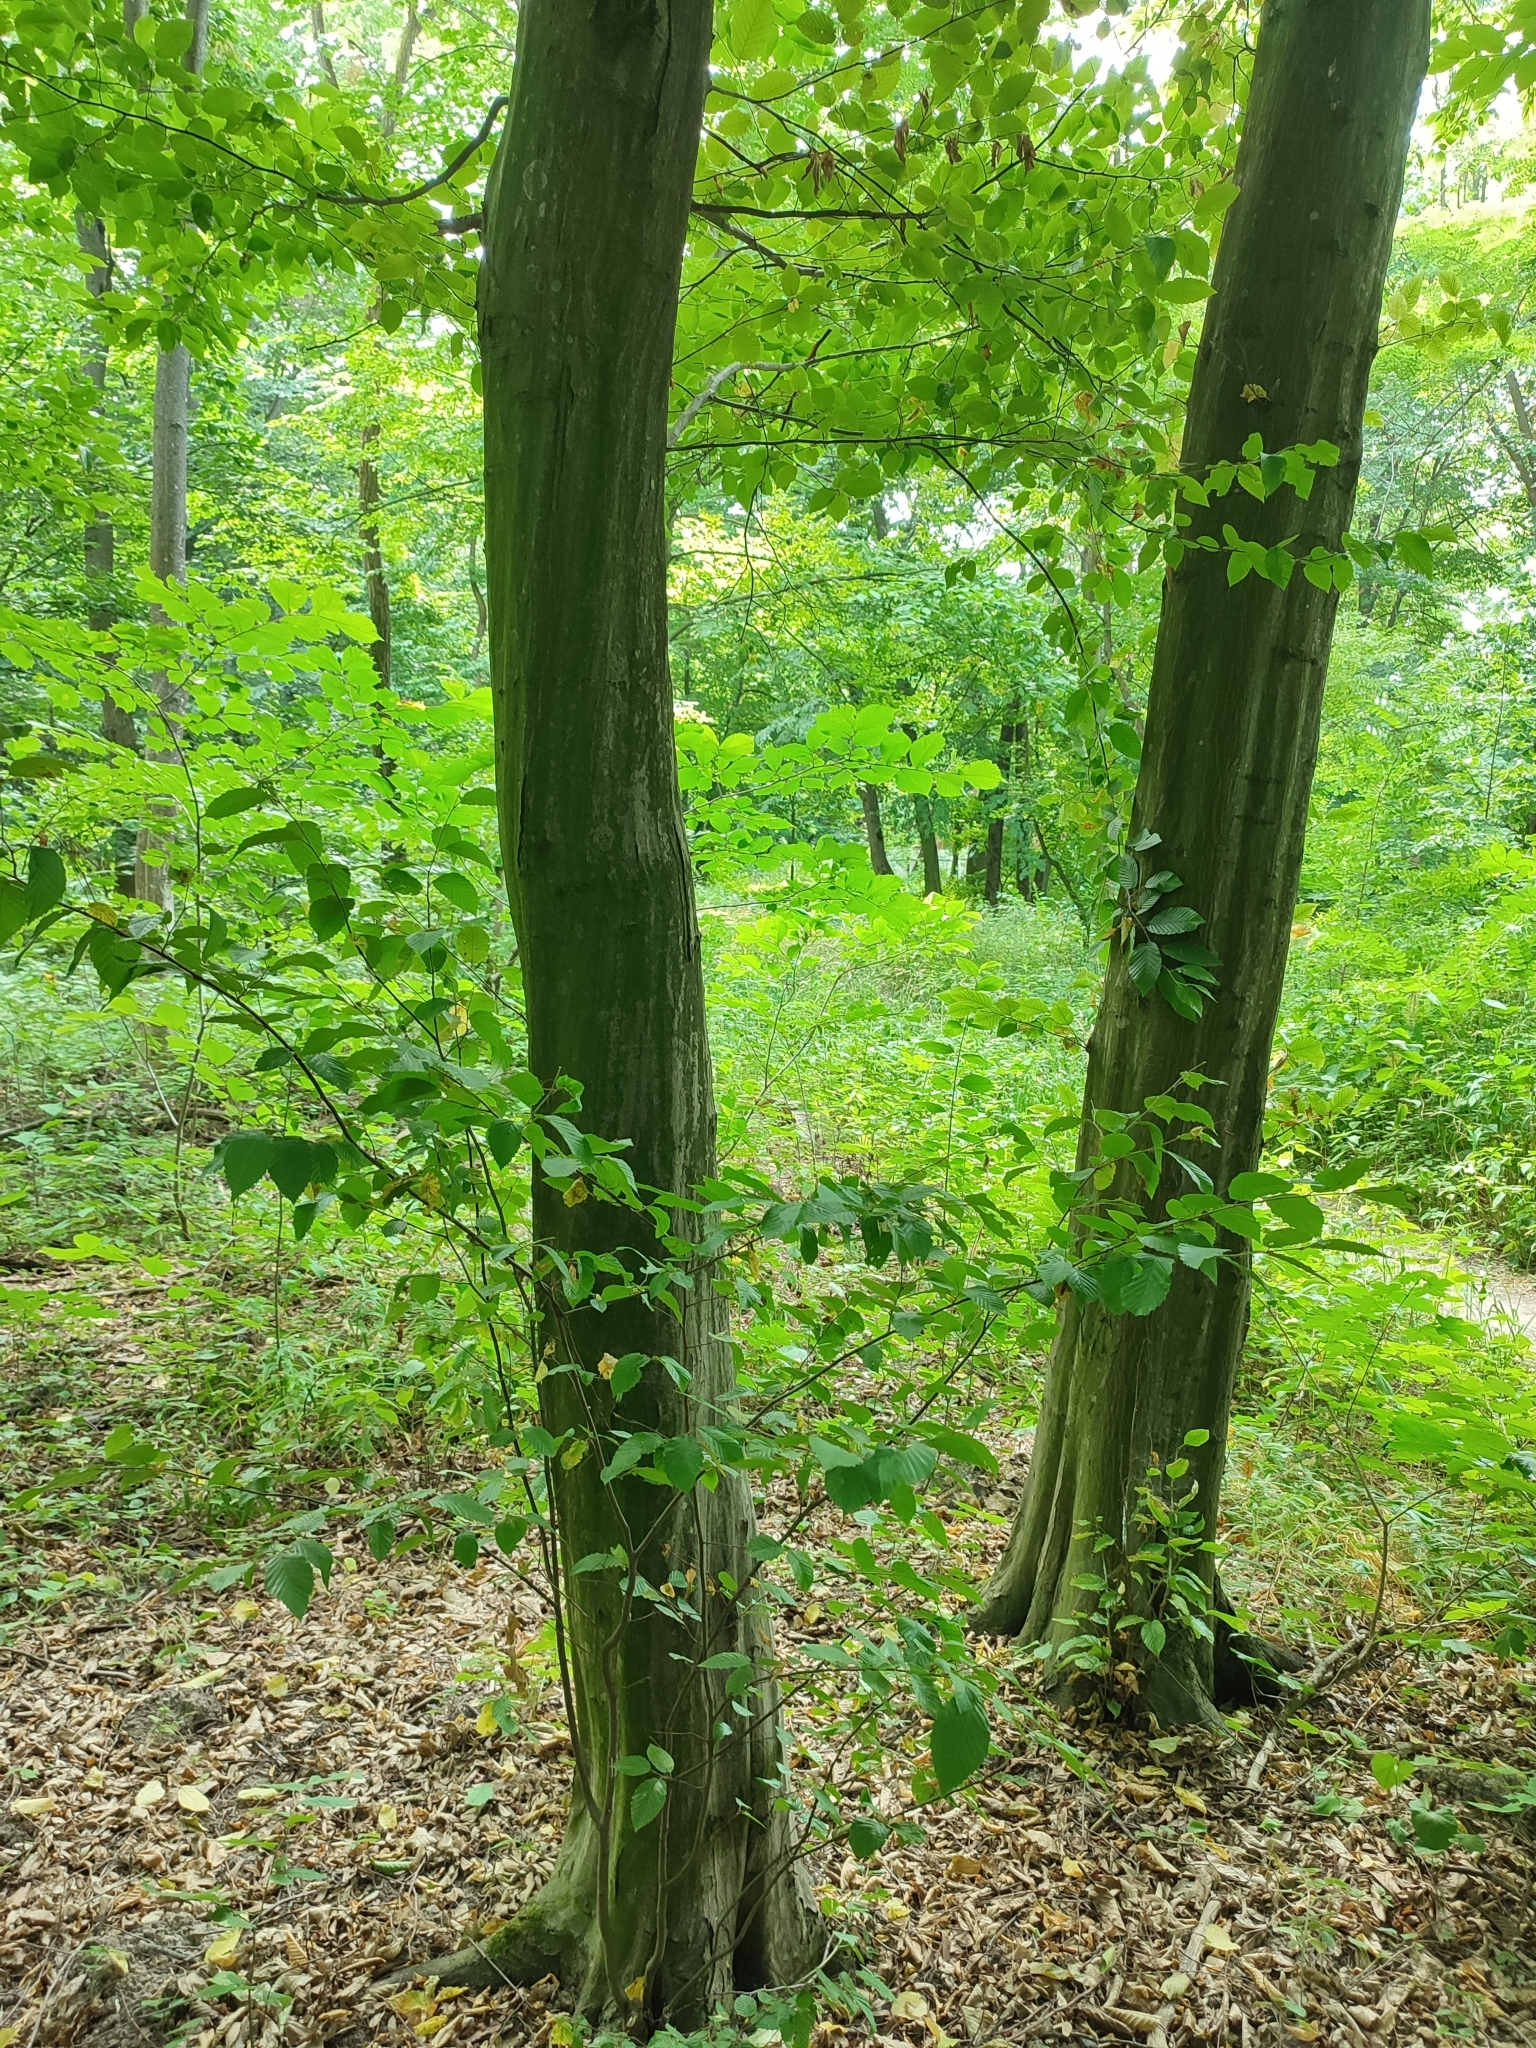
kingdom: Plantae
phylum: Tracheophyta
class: Magnoliopsida
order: Fagales
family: Betulaceae
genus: Carpinus
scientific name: Carpinus betulus
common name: Hornbeam
